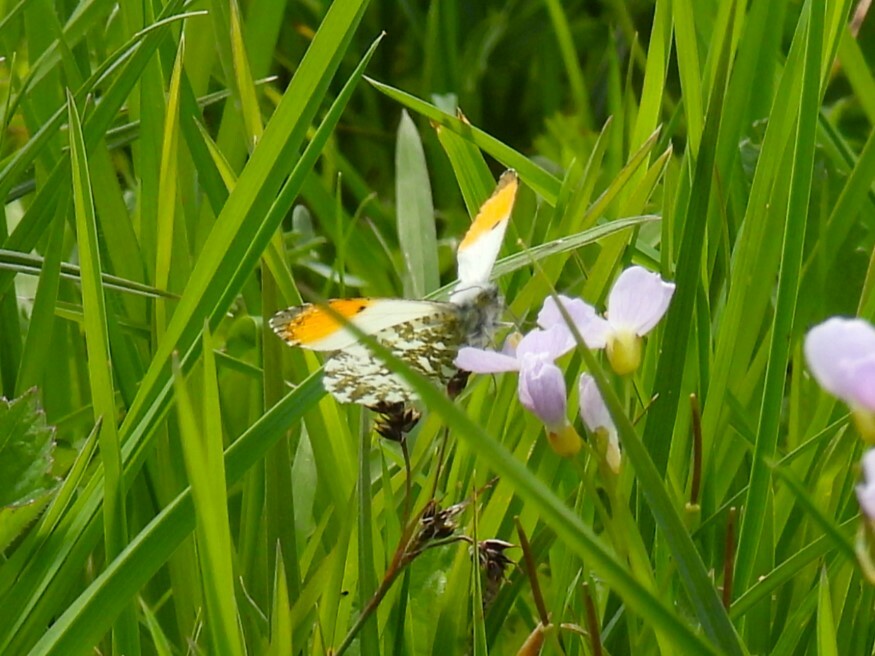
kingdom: Animalia
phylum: Arthropoda
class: Insecta
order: Lepidoptera
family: Pieridae
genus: Anthocharis
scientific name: Anthocharis cardamines
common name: Orange-tip
